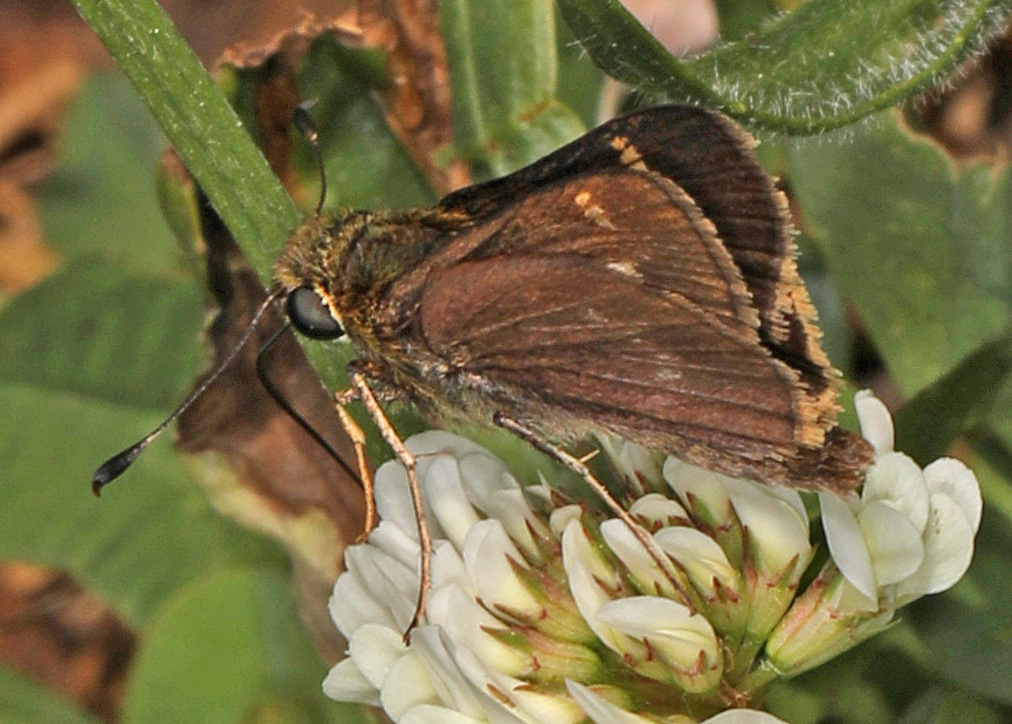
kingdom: Animalia
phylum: Arthropoda
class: Insecta
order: Lepidoptera
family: Hesperiidae
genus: Vernia
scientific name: Vernia verna
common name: Little glassywing
